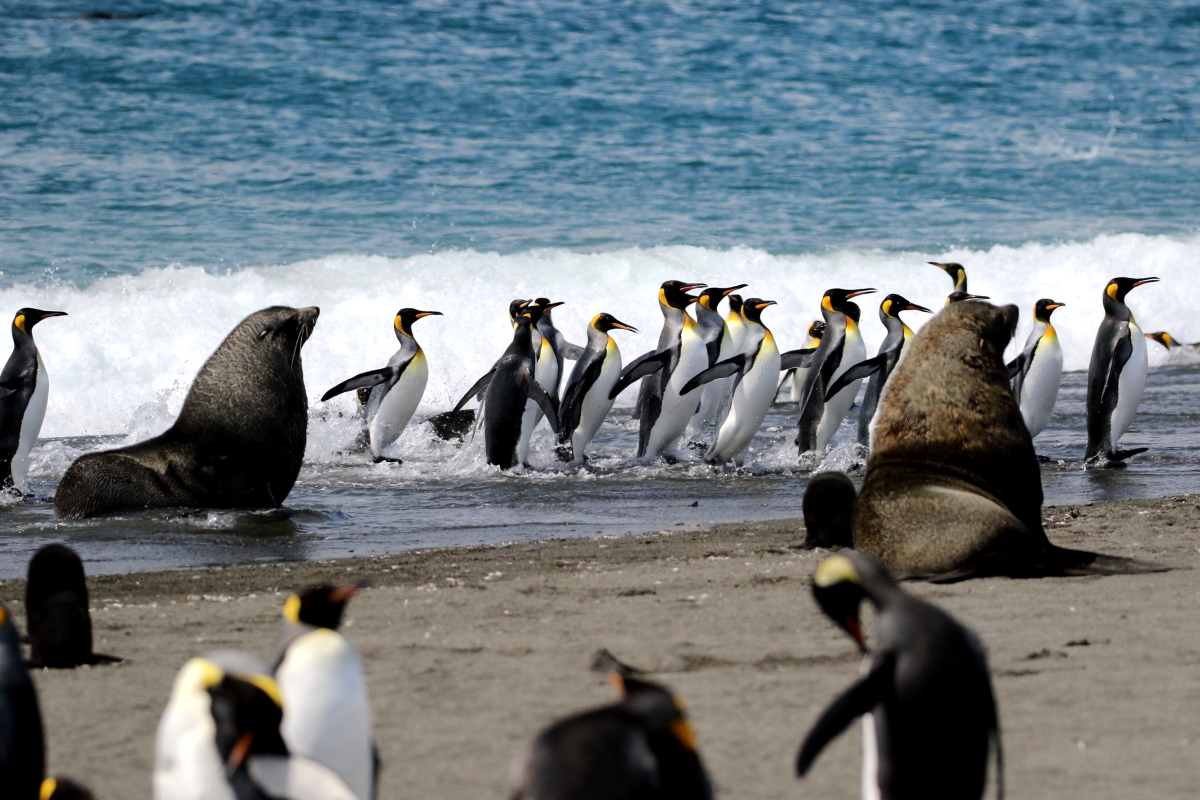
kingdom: Animalia
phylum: Chordata
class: Aves
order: Sphenisciformes
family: Spheniscidae
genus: Aptenodytes
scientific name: Aptenodytes patagonicus
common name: King penguin
